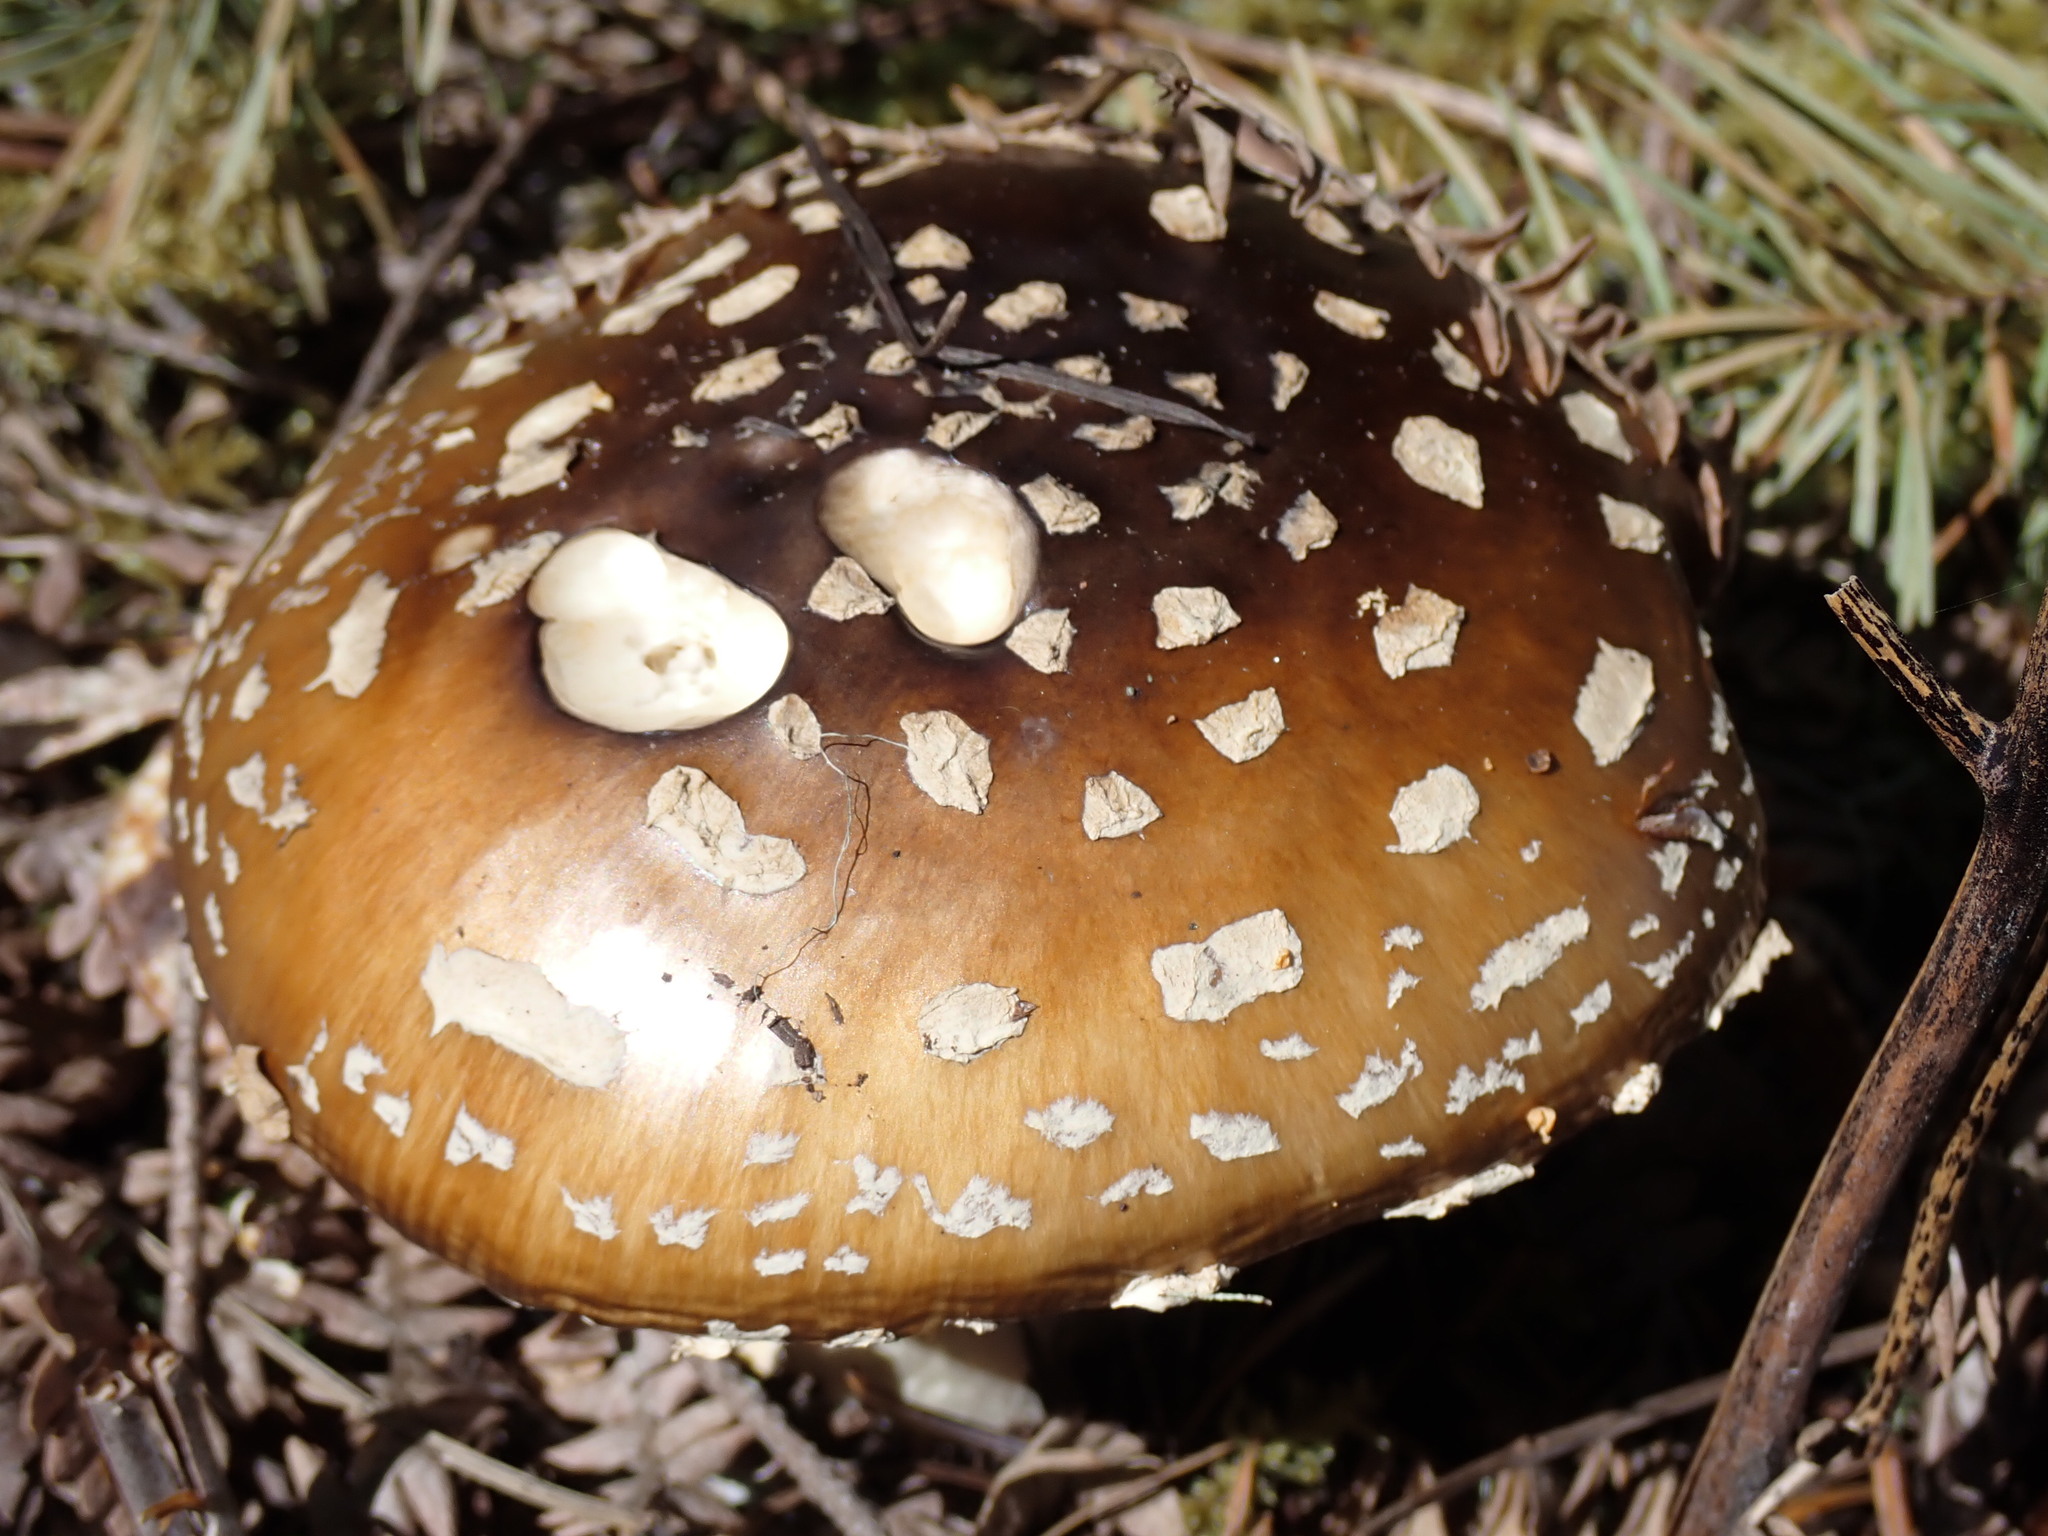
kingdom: Fungi
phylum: Basidiomycota
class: Agaricomycetes
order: Agaricales
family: Amanitaceae
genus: Amanita
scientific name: Amanita pantherinoides
